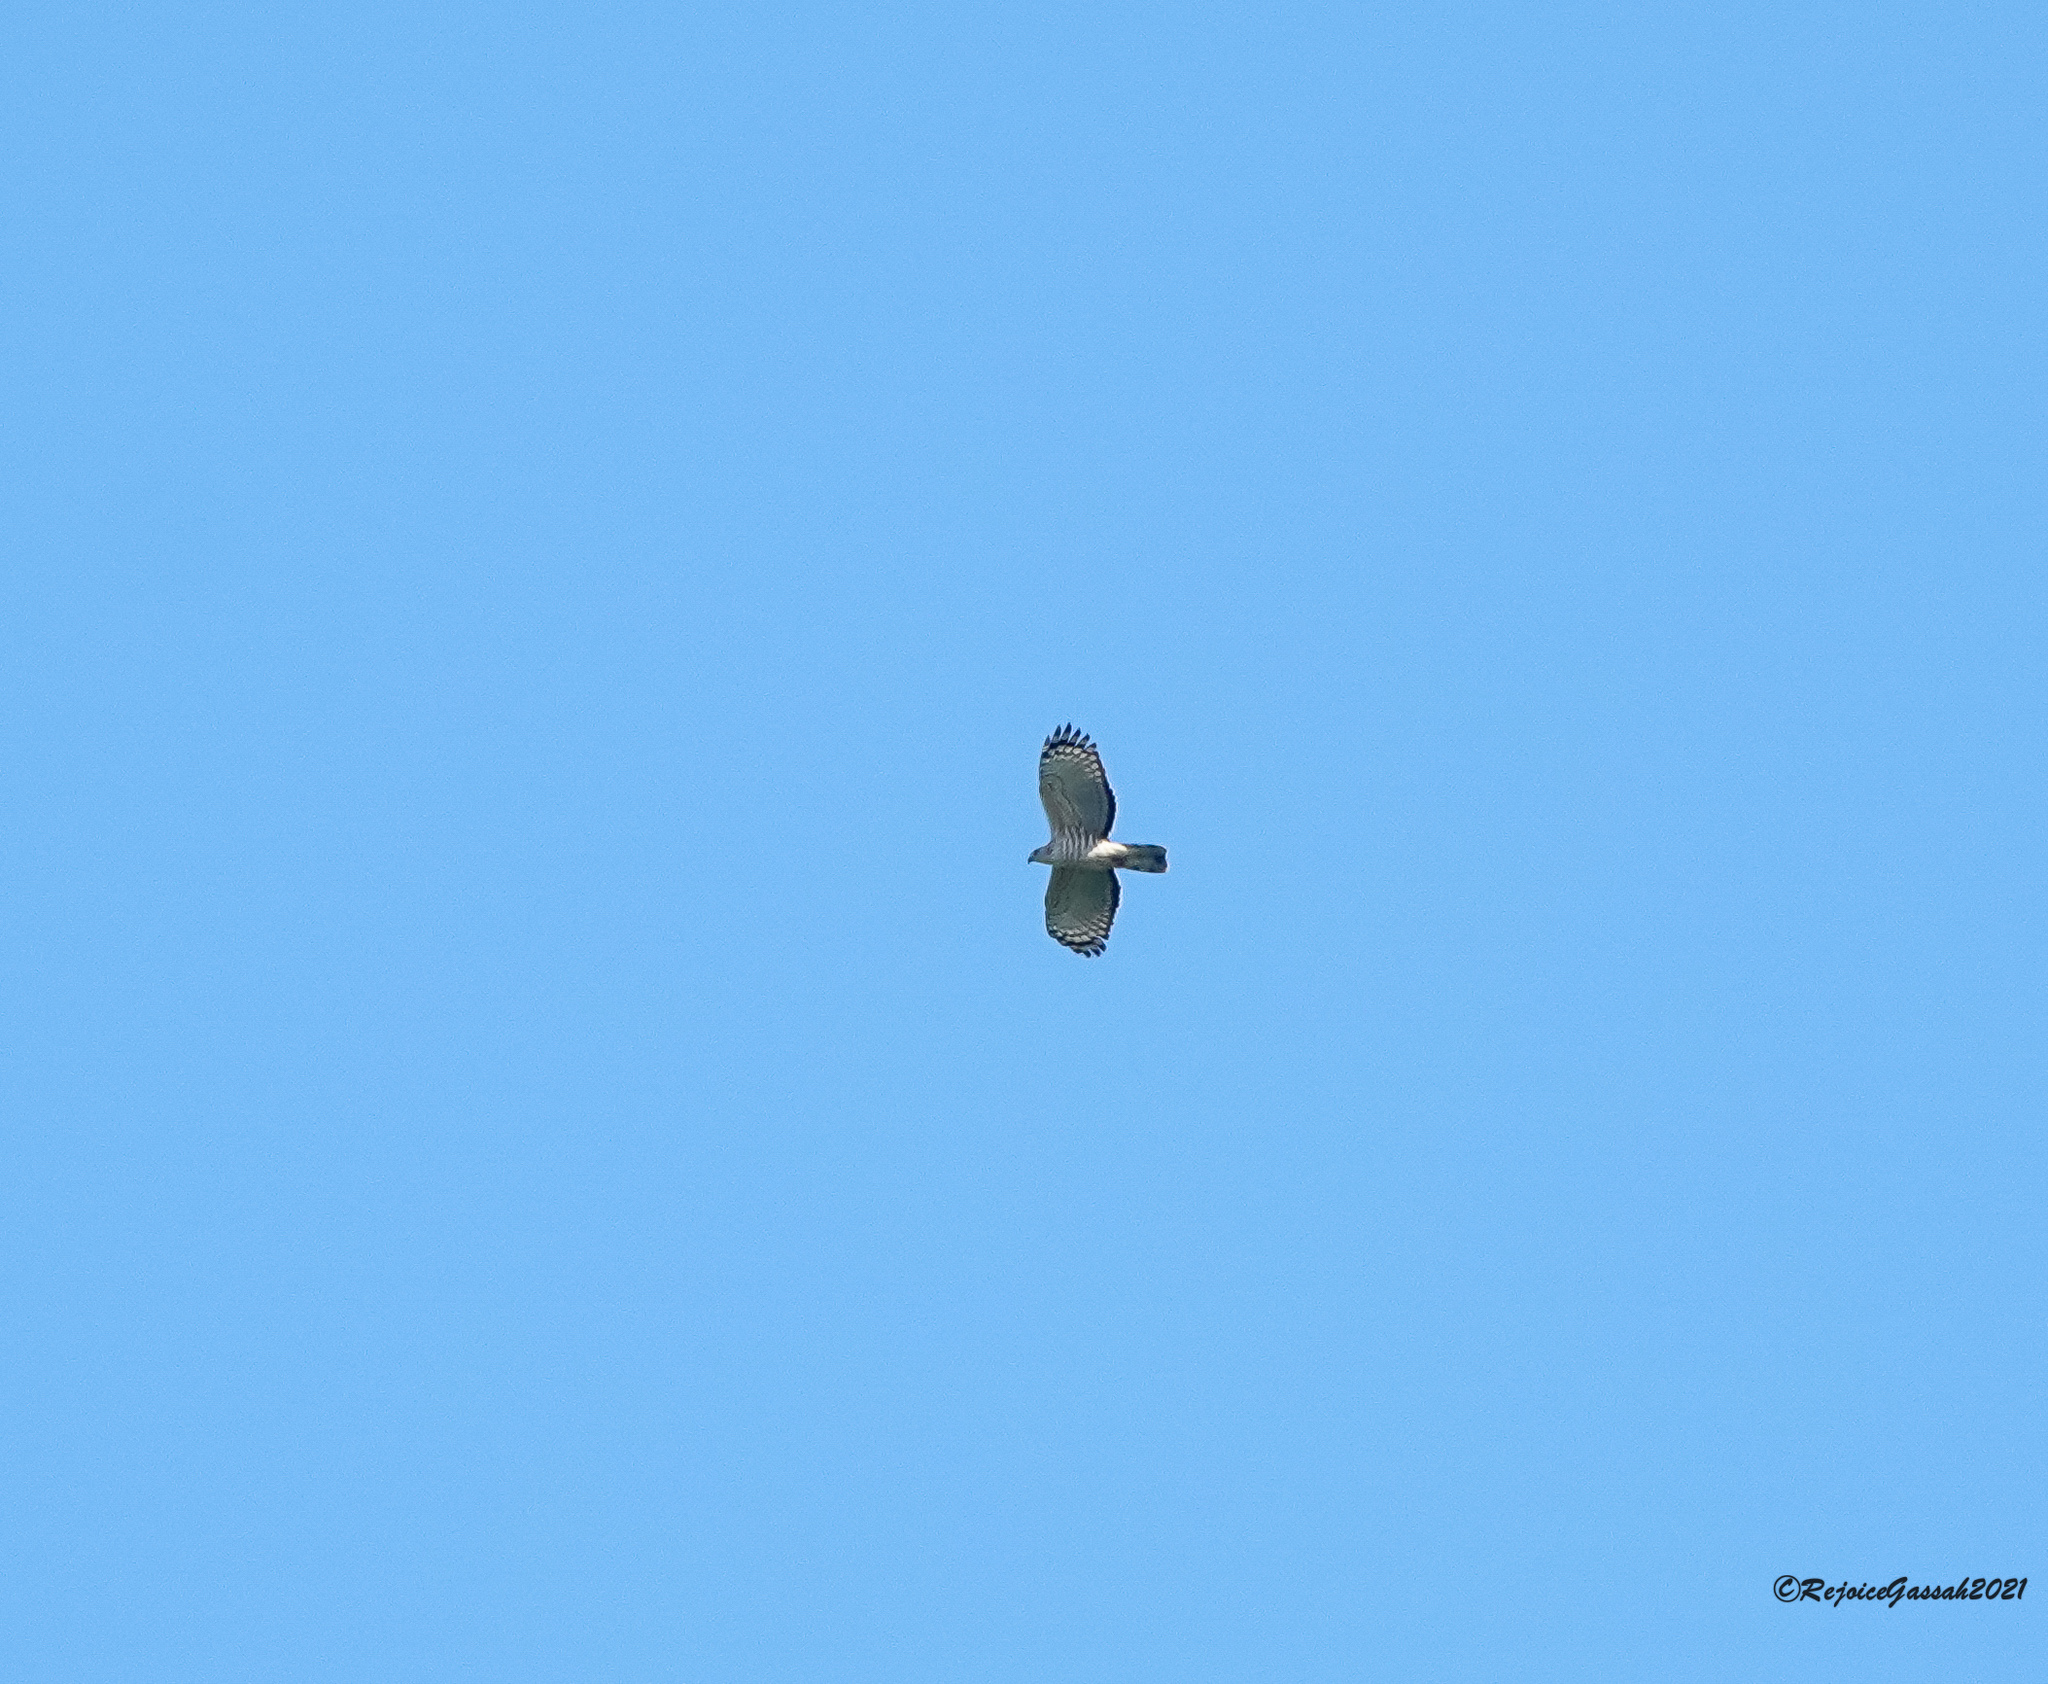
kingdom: Animalia
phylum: Chordata
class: Aves
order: Accipitriformes
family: Accipitridae
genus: Aviceda
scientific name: Aviceda jerdoni
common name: Jerdon's baza
